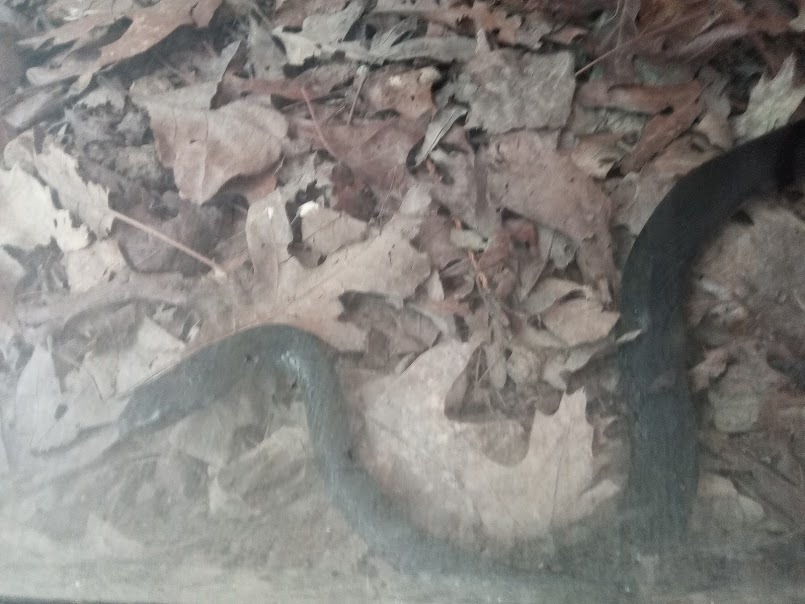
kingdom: Animalia
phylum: Chordata
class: Squamata
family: Colubridae
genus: Coluber
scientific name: Coluber constrictor
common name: Eastern racer
